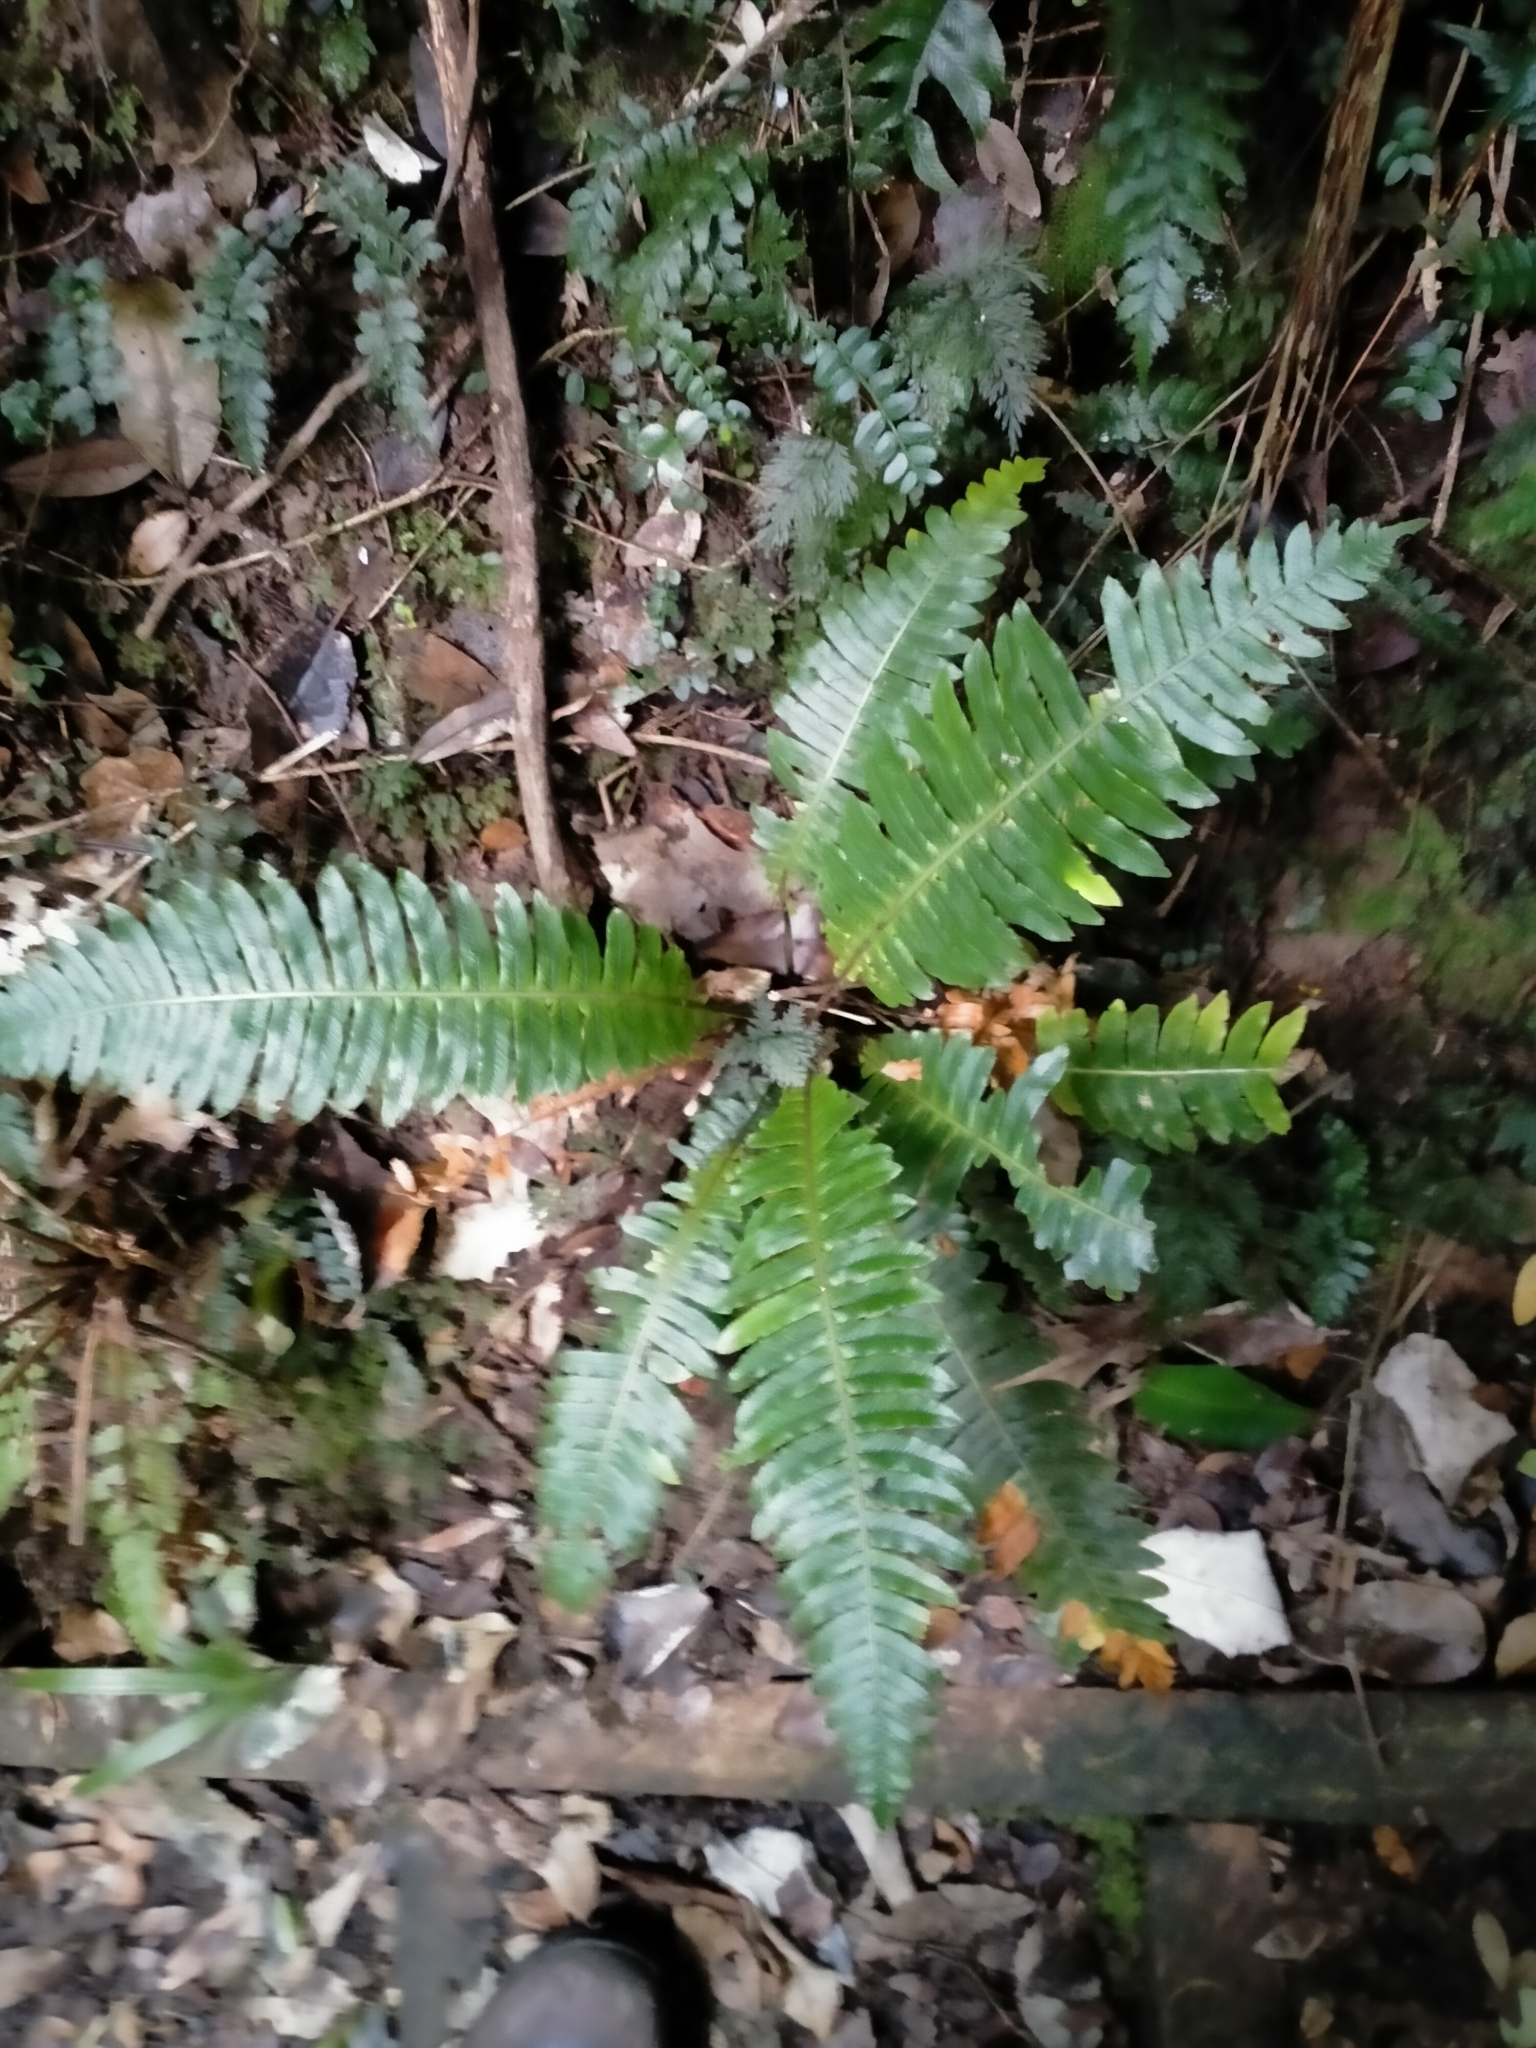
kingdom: Plantae
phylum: Tracheophyta
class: Polypodiopsida
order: Polypodiales
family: Blechnaceae
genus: Lomaria
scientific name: Lomaria discolor
